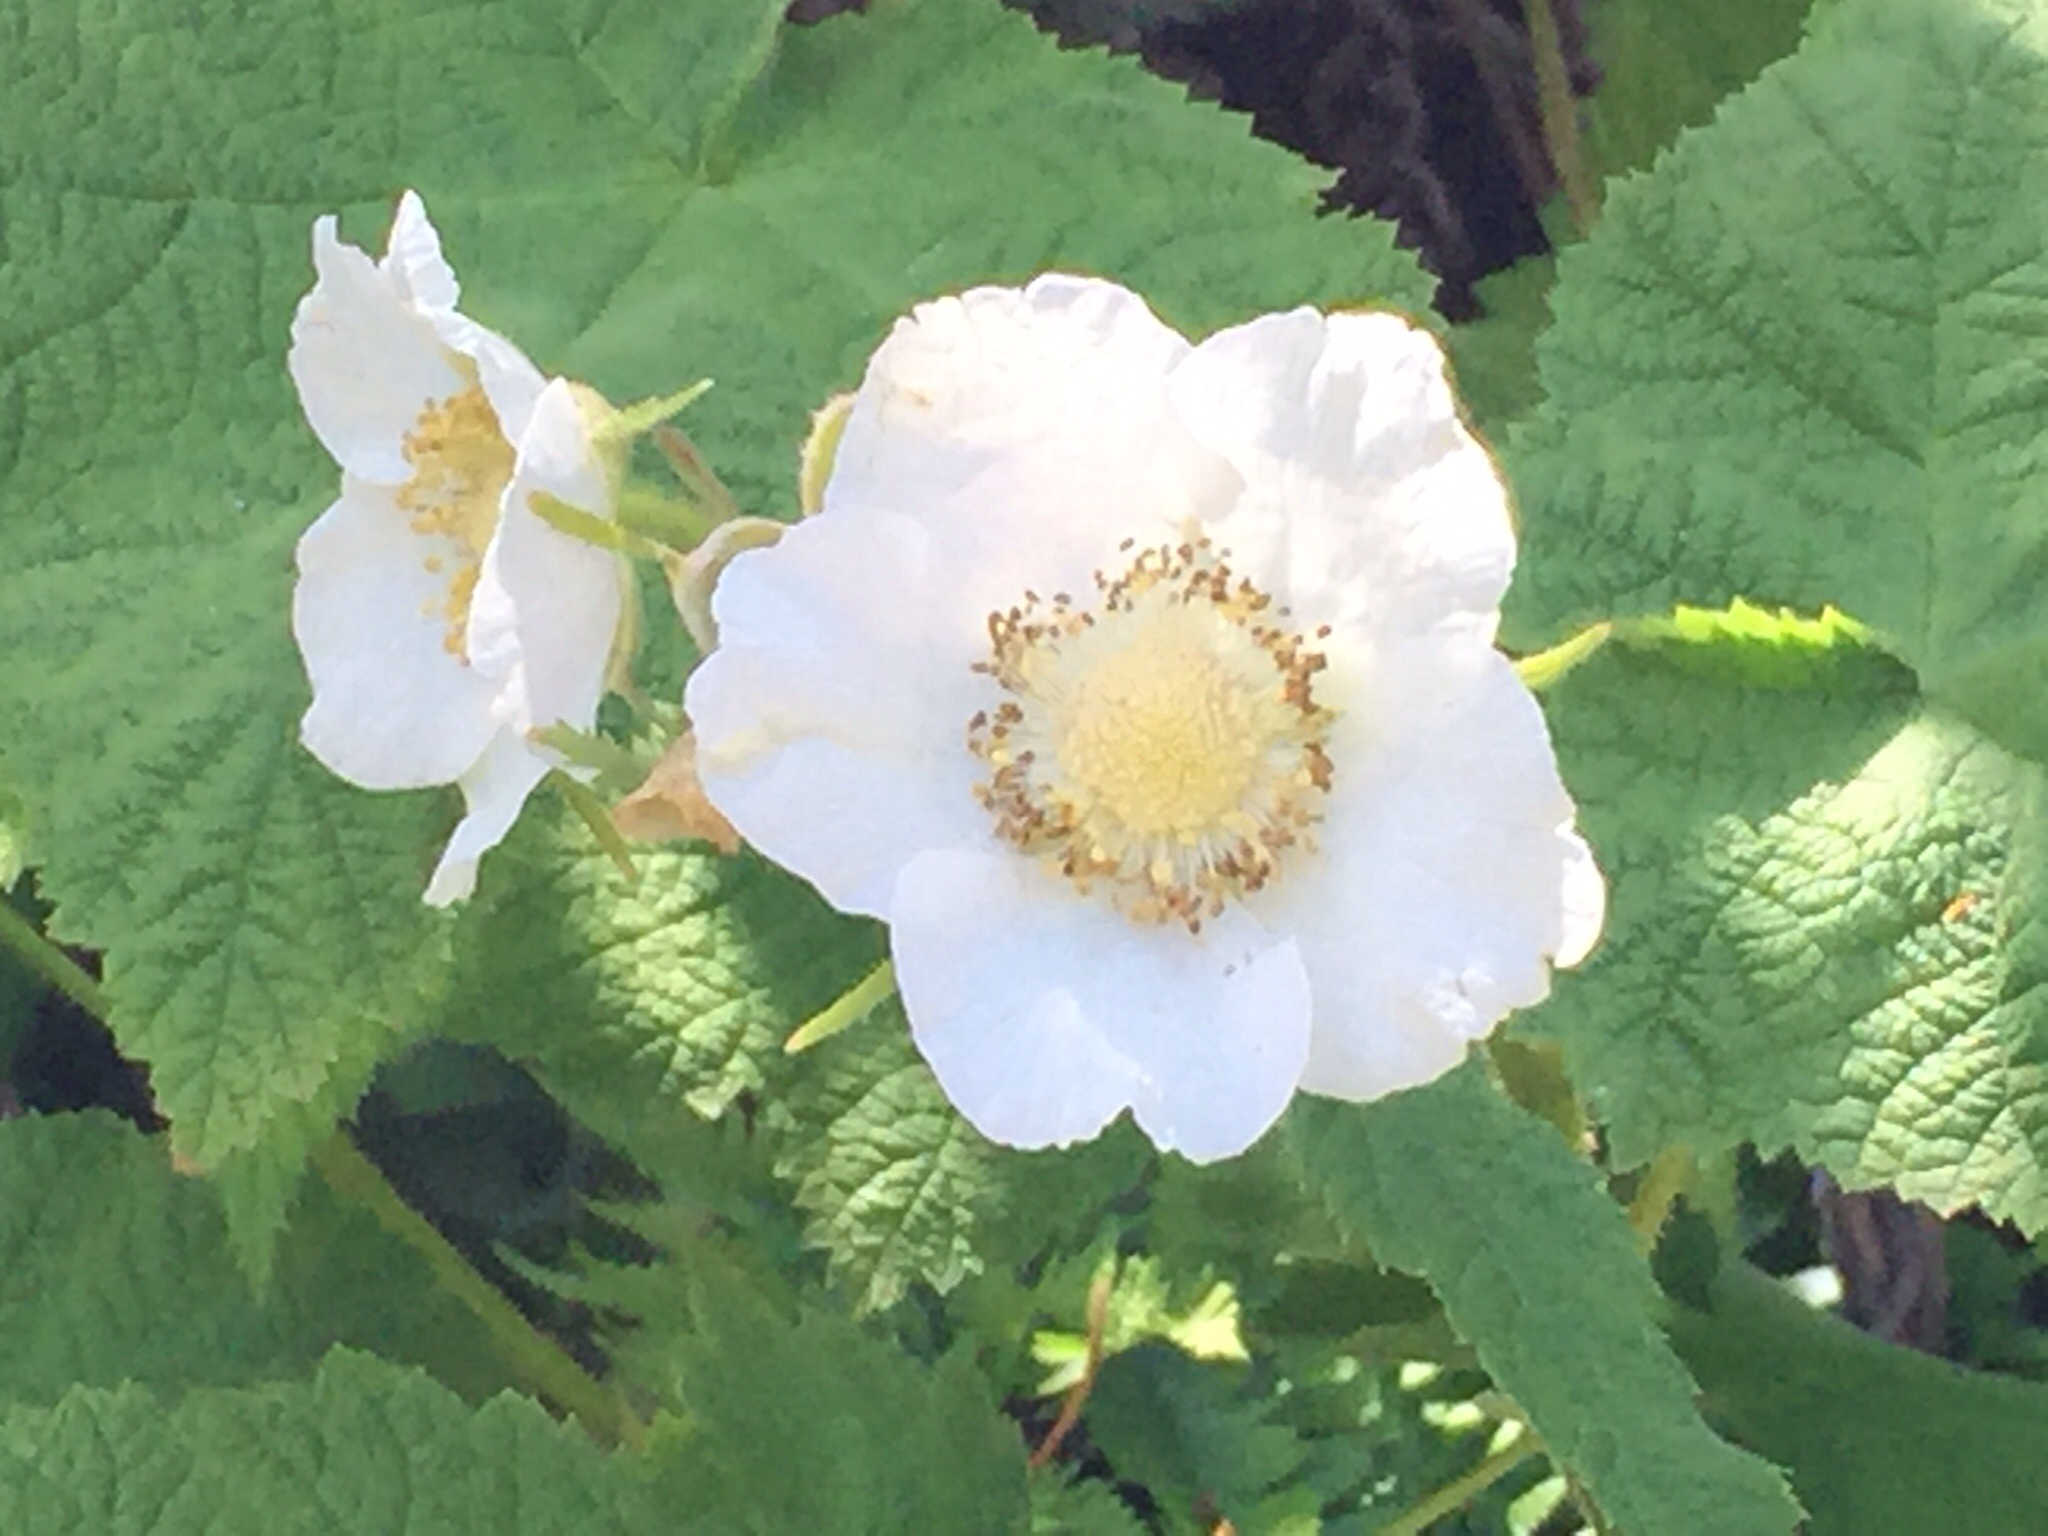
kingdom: Plantae
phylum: Tracheophyta
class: Magnoliopsida
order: Rosales
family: Rosaceae
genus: Rubus
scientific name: Rubus parviflorus
